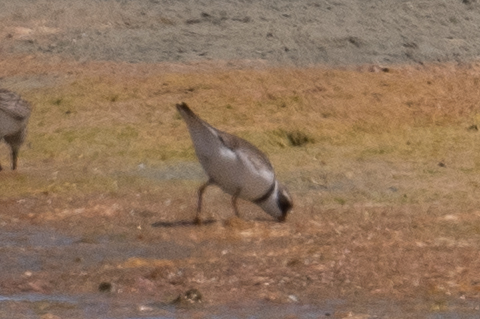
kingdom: Animalia
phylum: Chordata
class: Aves
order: Charadriiformes
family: Charadriidae
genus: Charadrius
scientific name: Charadrius semipalmatus
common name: Semipalmated plover
